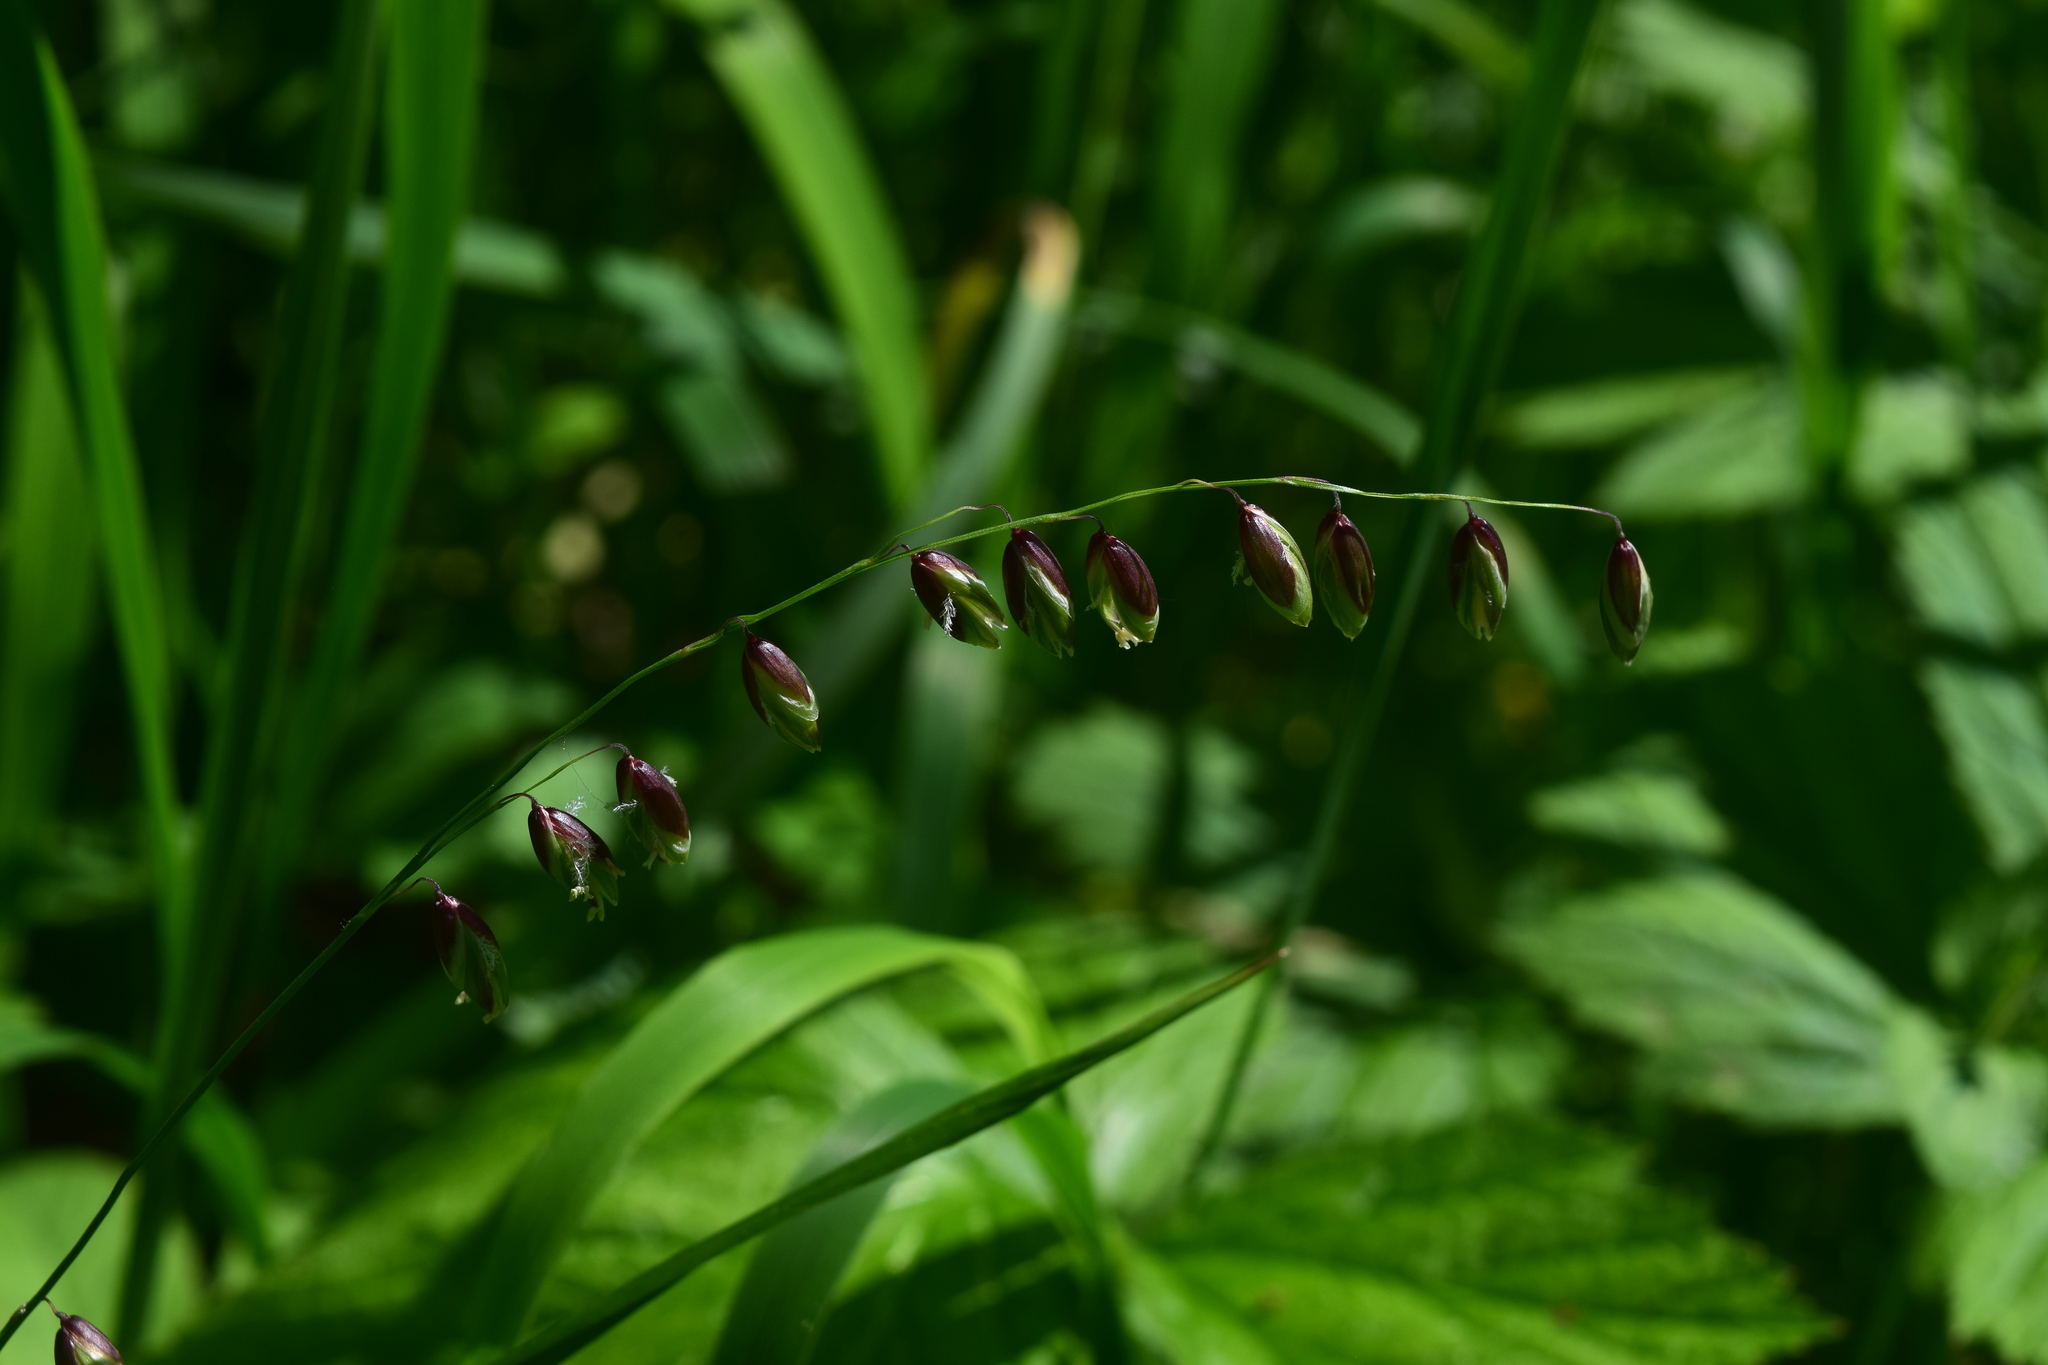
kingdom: Plantae
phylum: Tracheophyta
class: Liliopsida
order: Poales
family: Poaceae
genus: Melica
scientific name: Melica nutans
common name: Mountain melick
